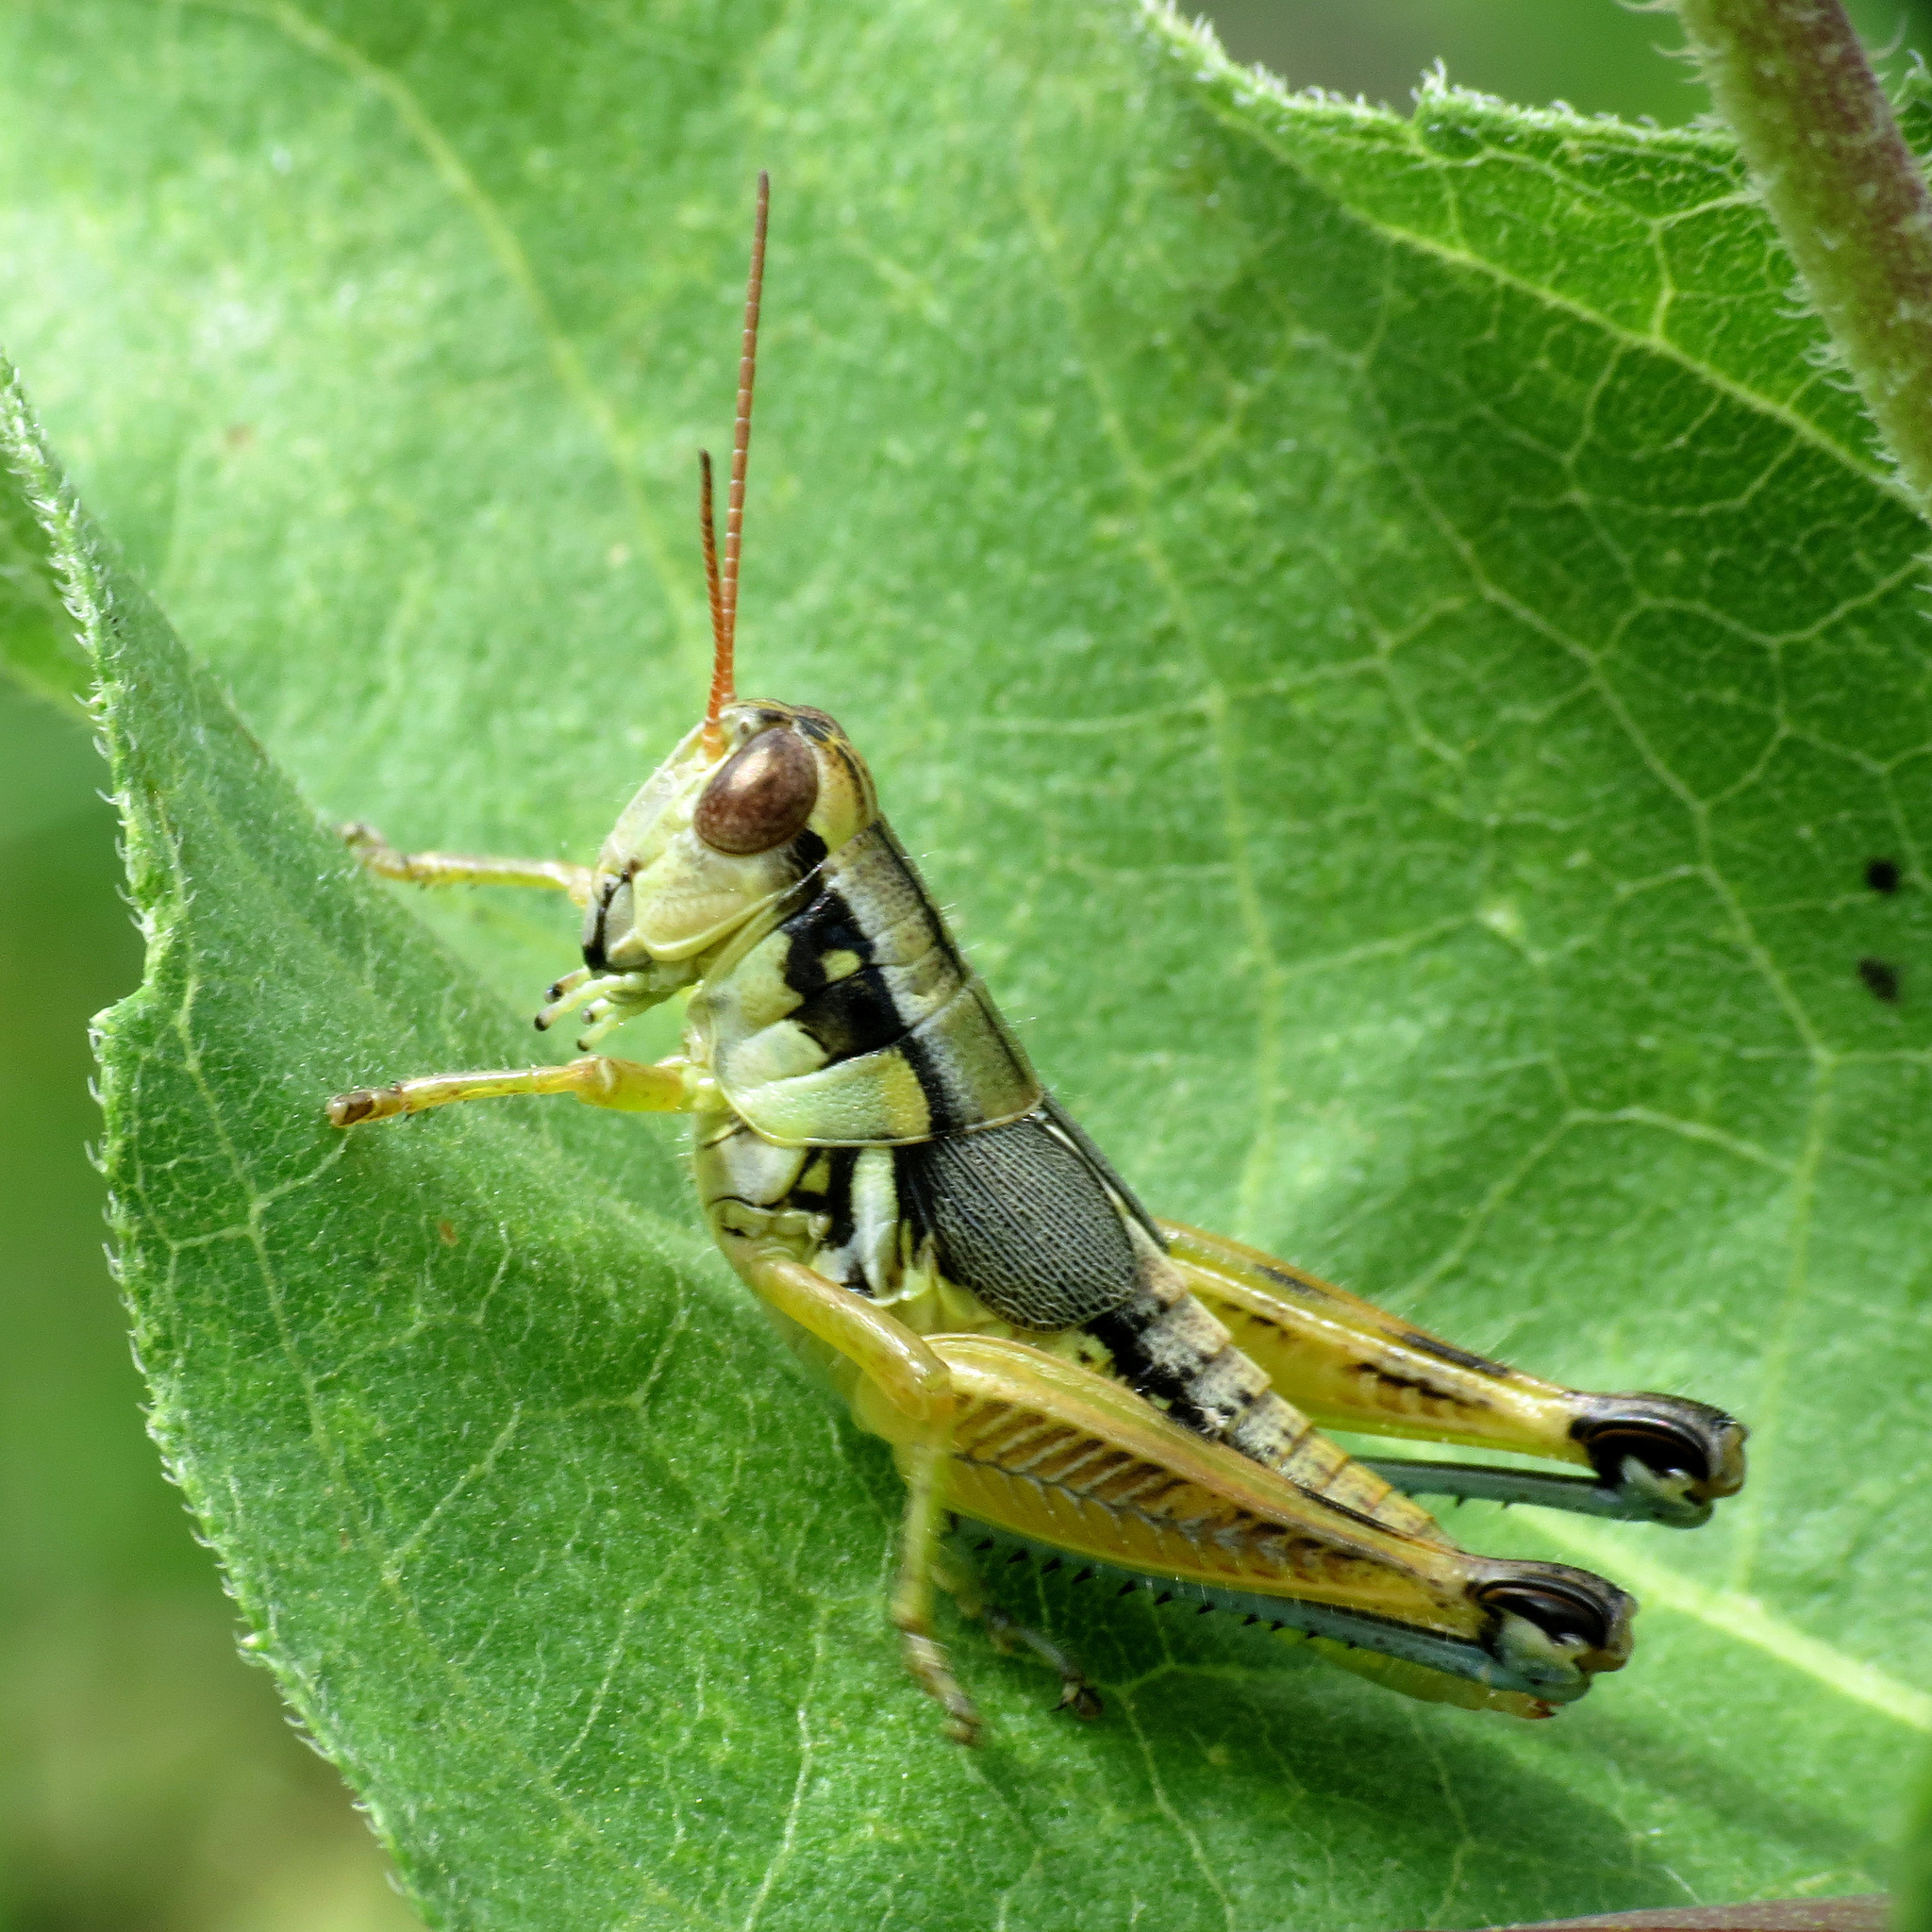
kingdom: Animalia
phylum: Arthropoda
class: Insecta
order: Orthoptera
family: Acrididae
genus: Melanoplus
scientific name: Melanoplus aridus
